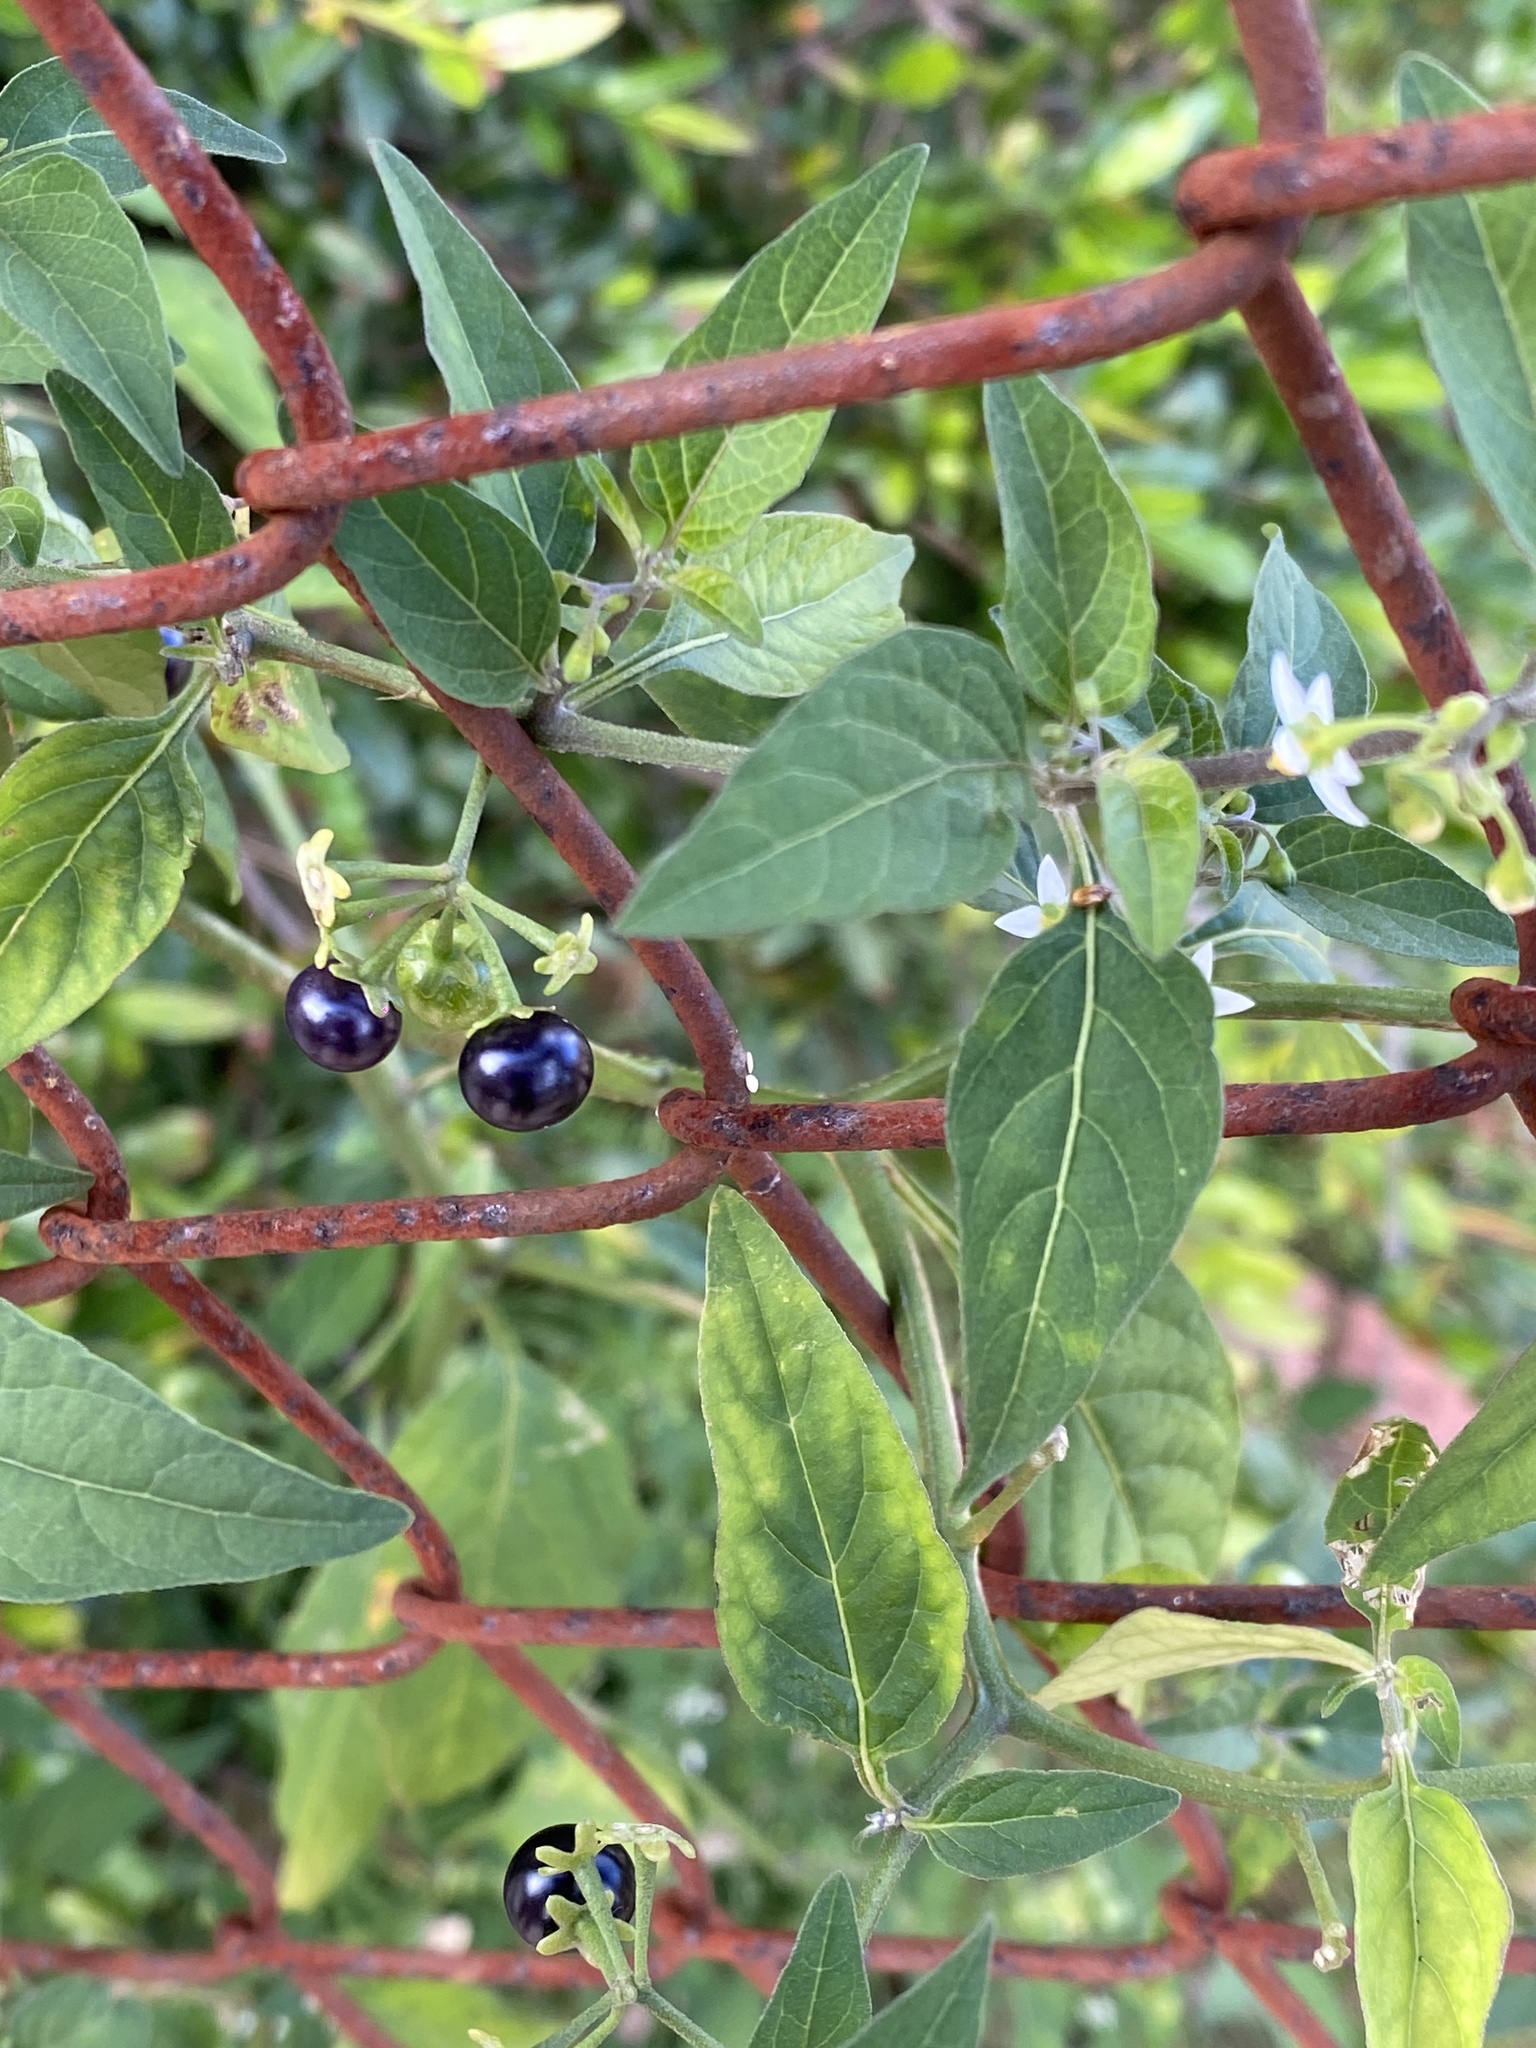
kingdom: Plantae
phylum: Tracheophyta
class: Magnoliopsida
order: Solanales
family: Solanaceae
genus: Solanum
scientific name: Solanum americanum
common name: American black nightshade
